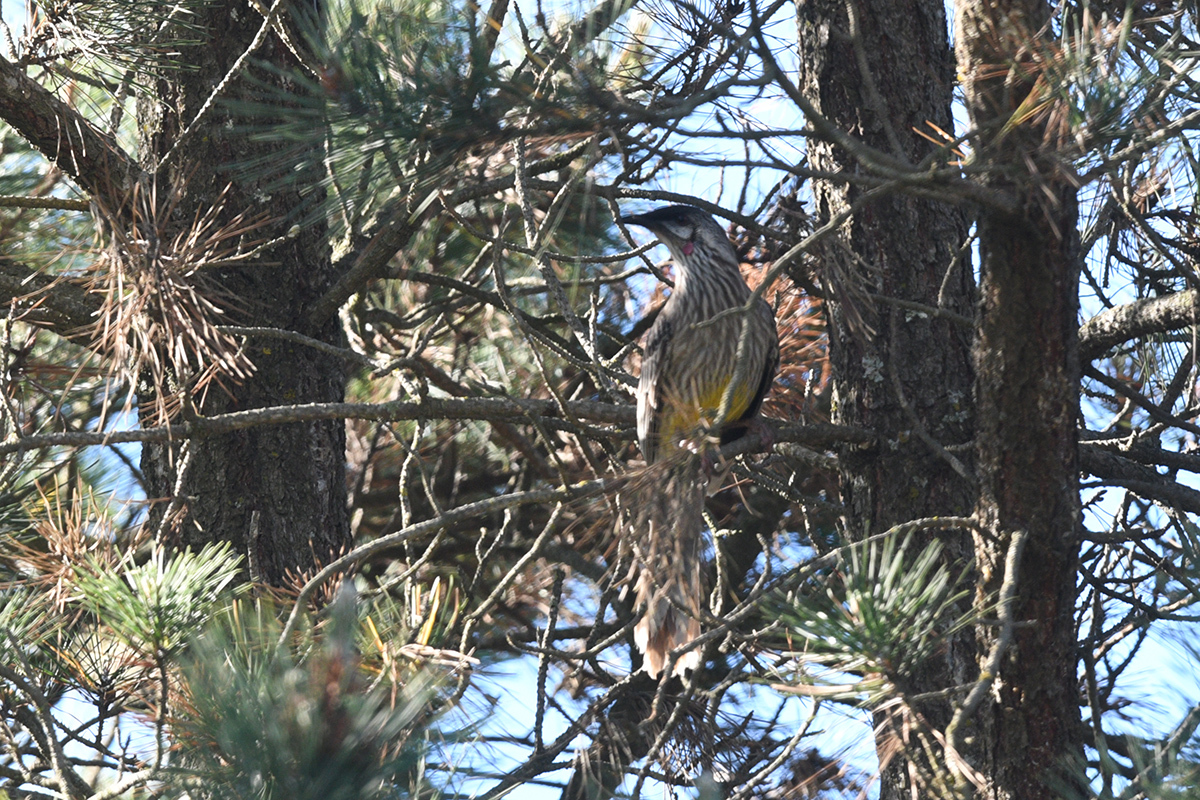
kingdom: Animalia
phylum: Chordata
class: Aves
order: Passeriformes
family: Meliphagidae
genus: Anthochaera
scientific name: Anthochaera carunculata
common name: Red wattlebird
